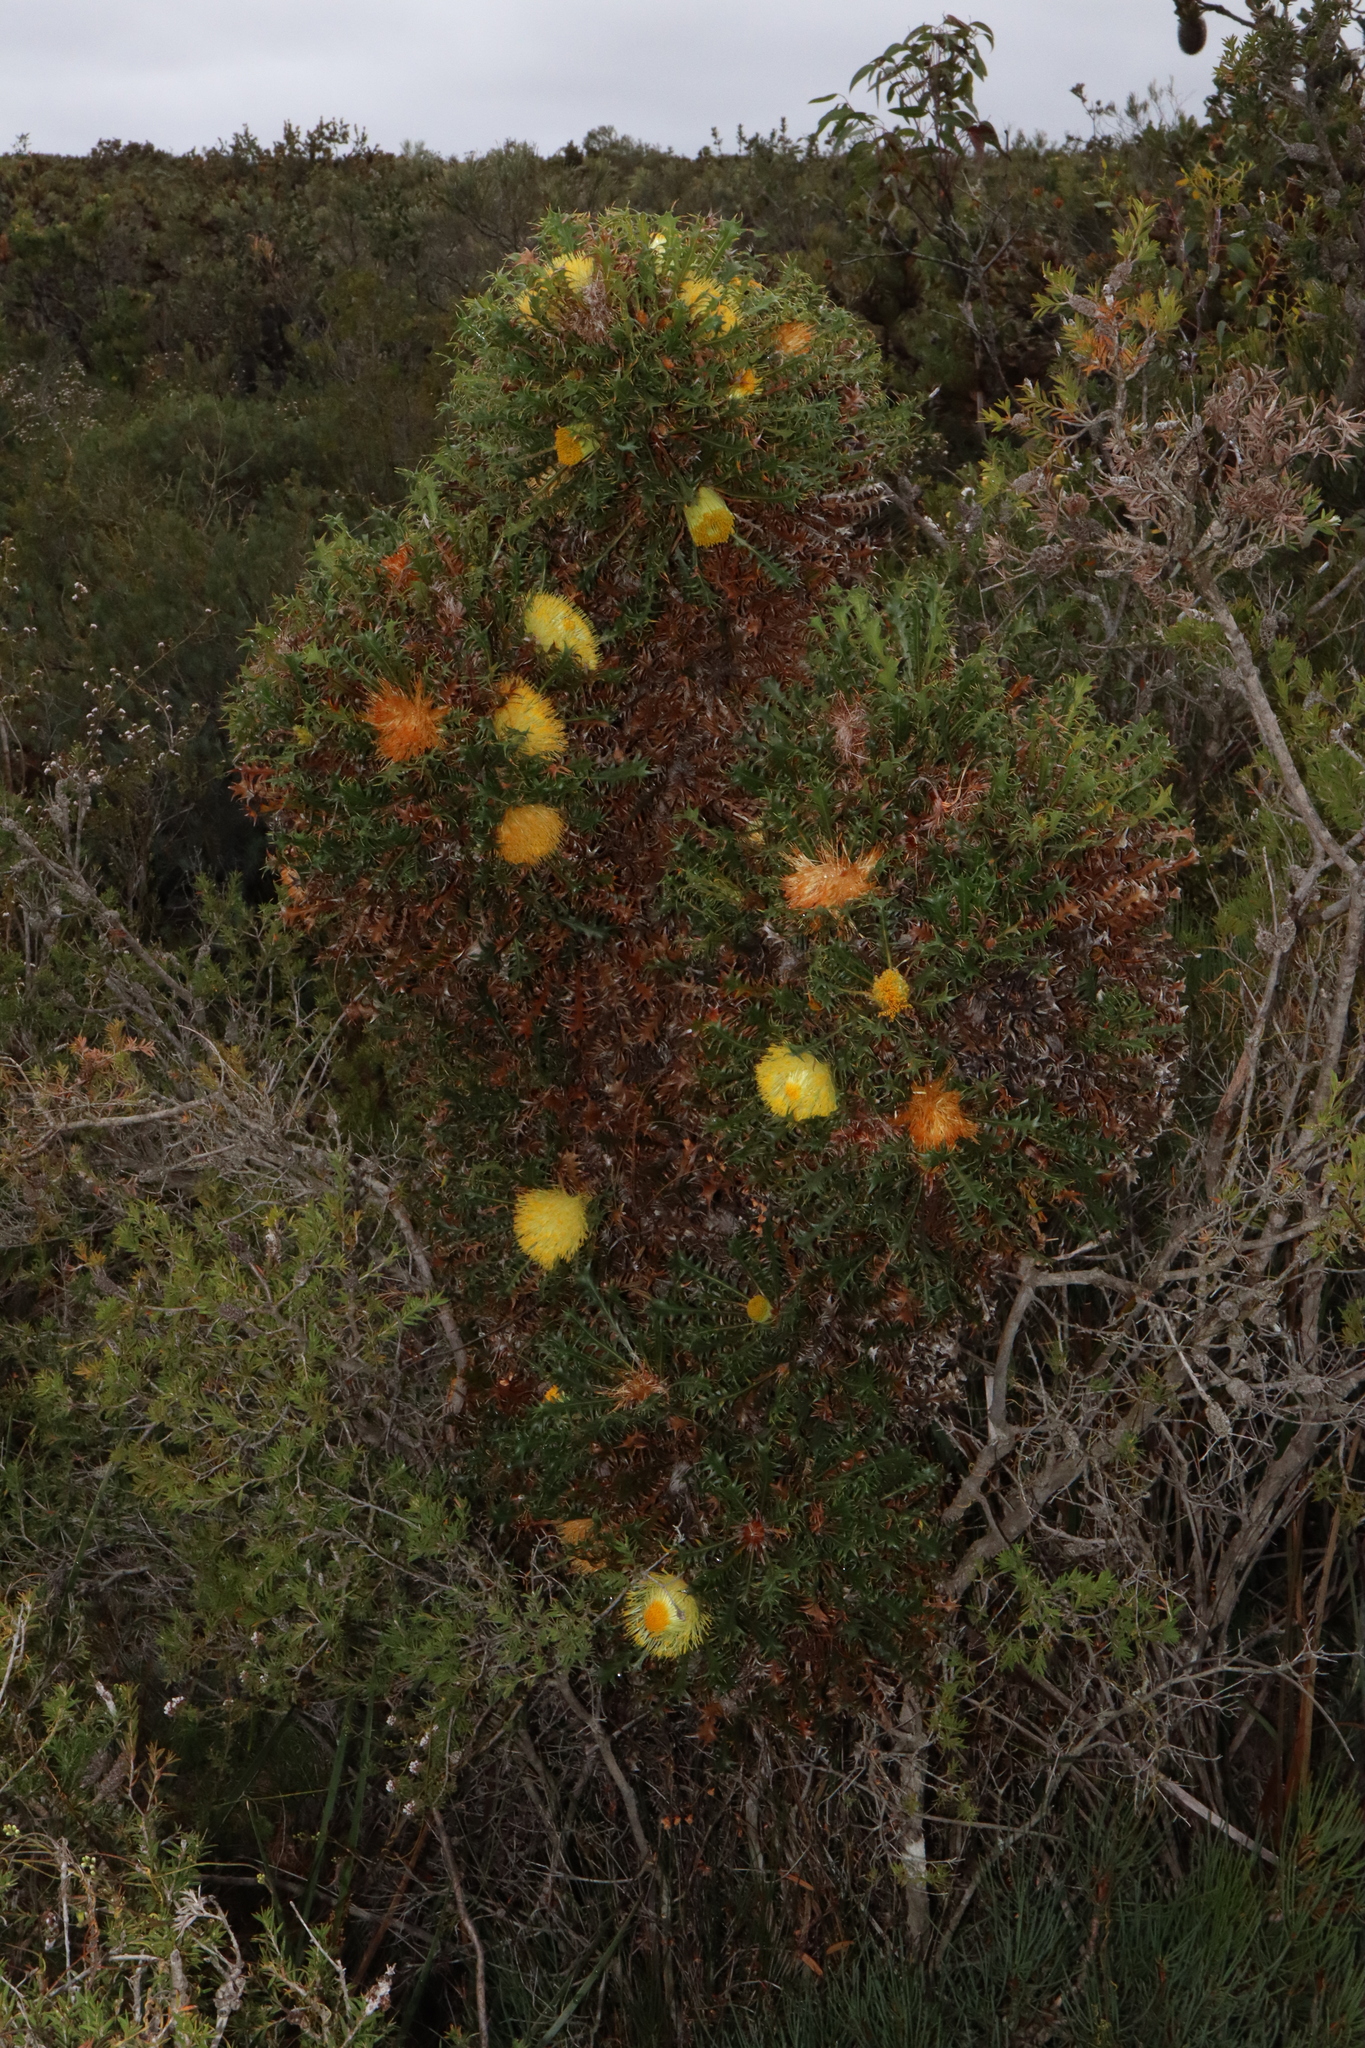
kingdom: Plantae
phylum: Tracheophyta
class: Magnoliopsida
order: Proteales
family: Proteaceae
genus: Banksia
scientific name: Banksia falcata
